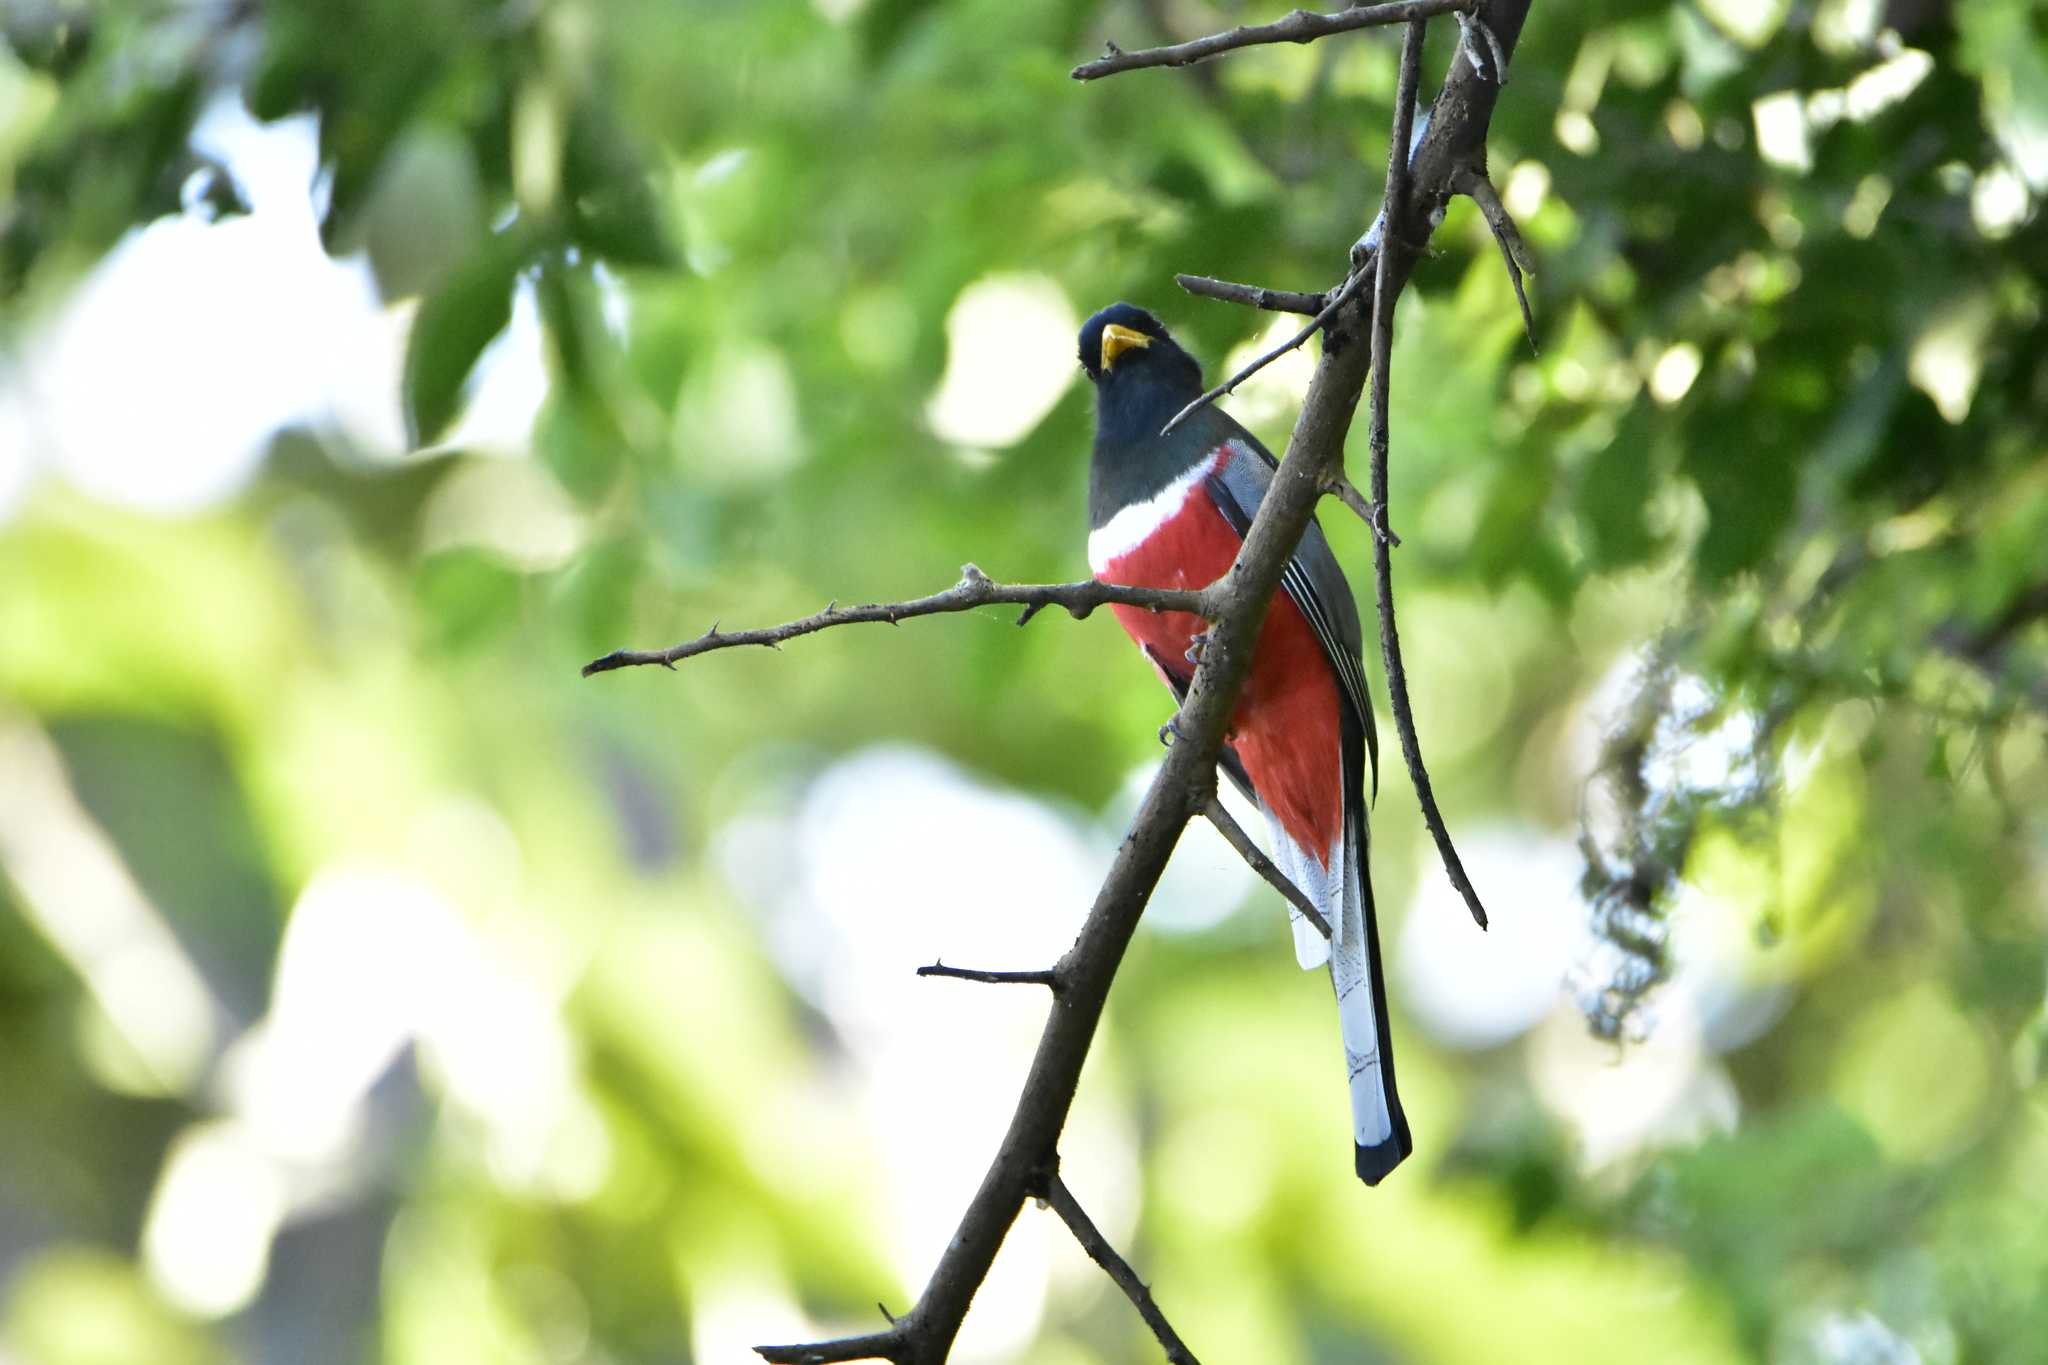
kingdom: Animalia
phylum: Chordata
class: Aves
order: Trogoniformes
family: Trogonidae
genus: Trogon
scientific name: Trogon elegans
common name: Elegant trogon
